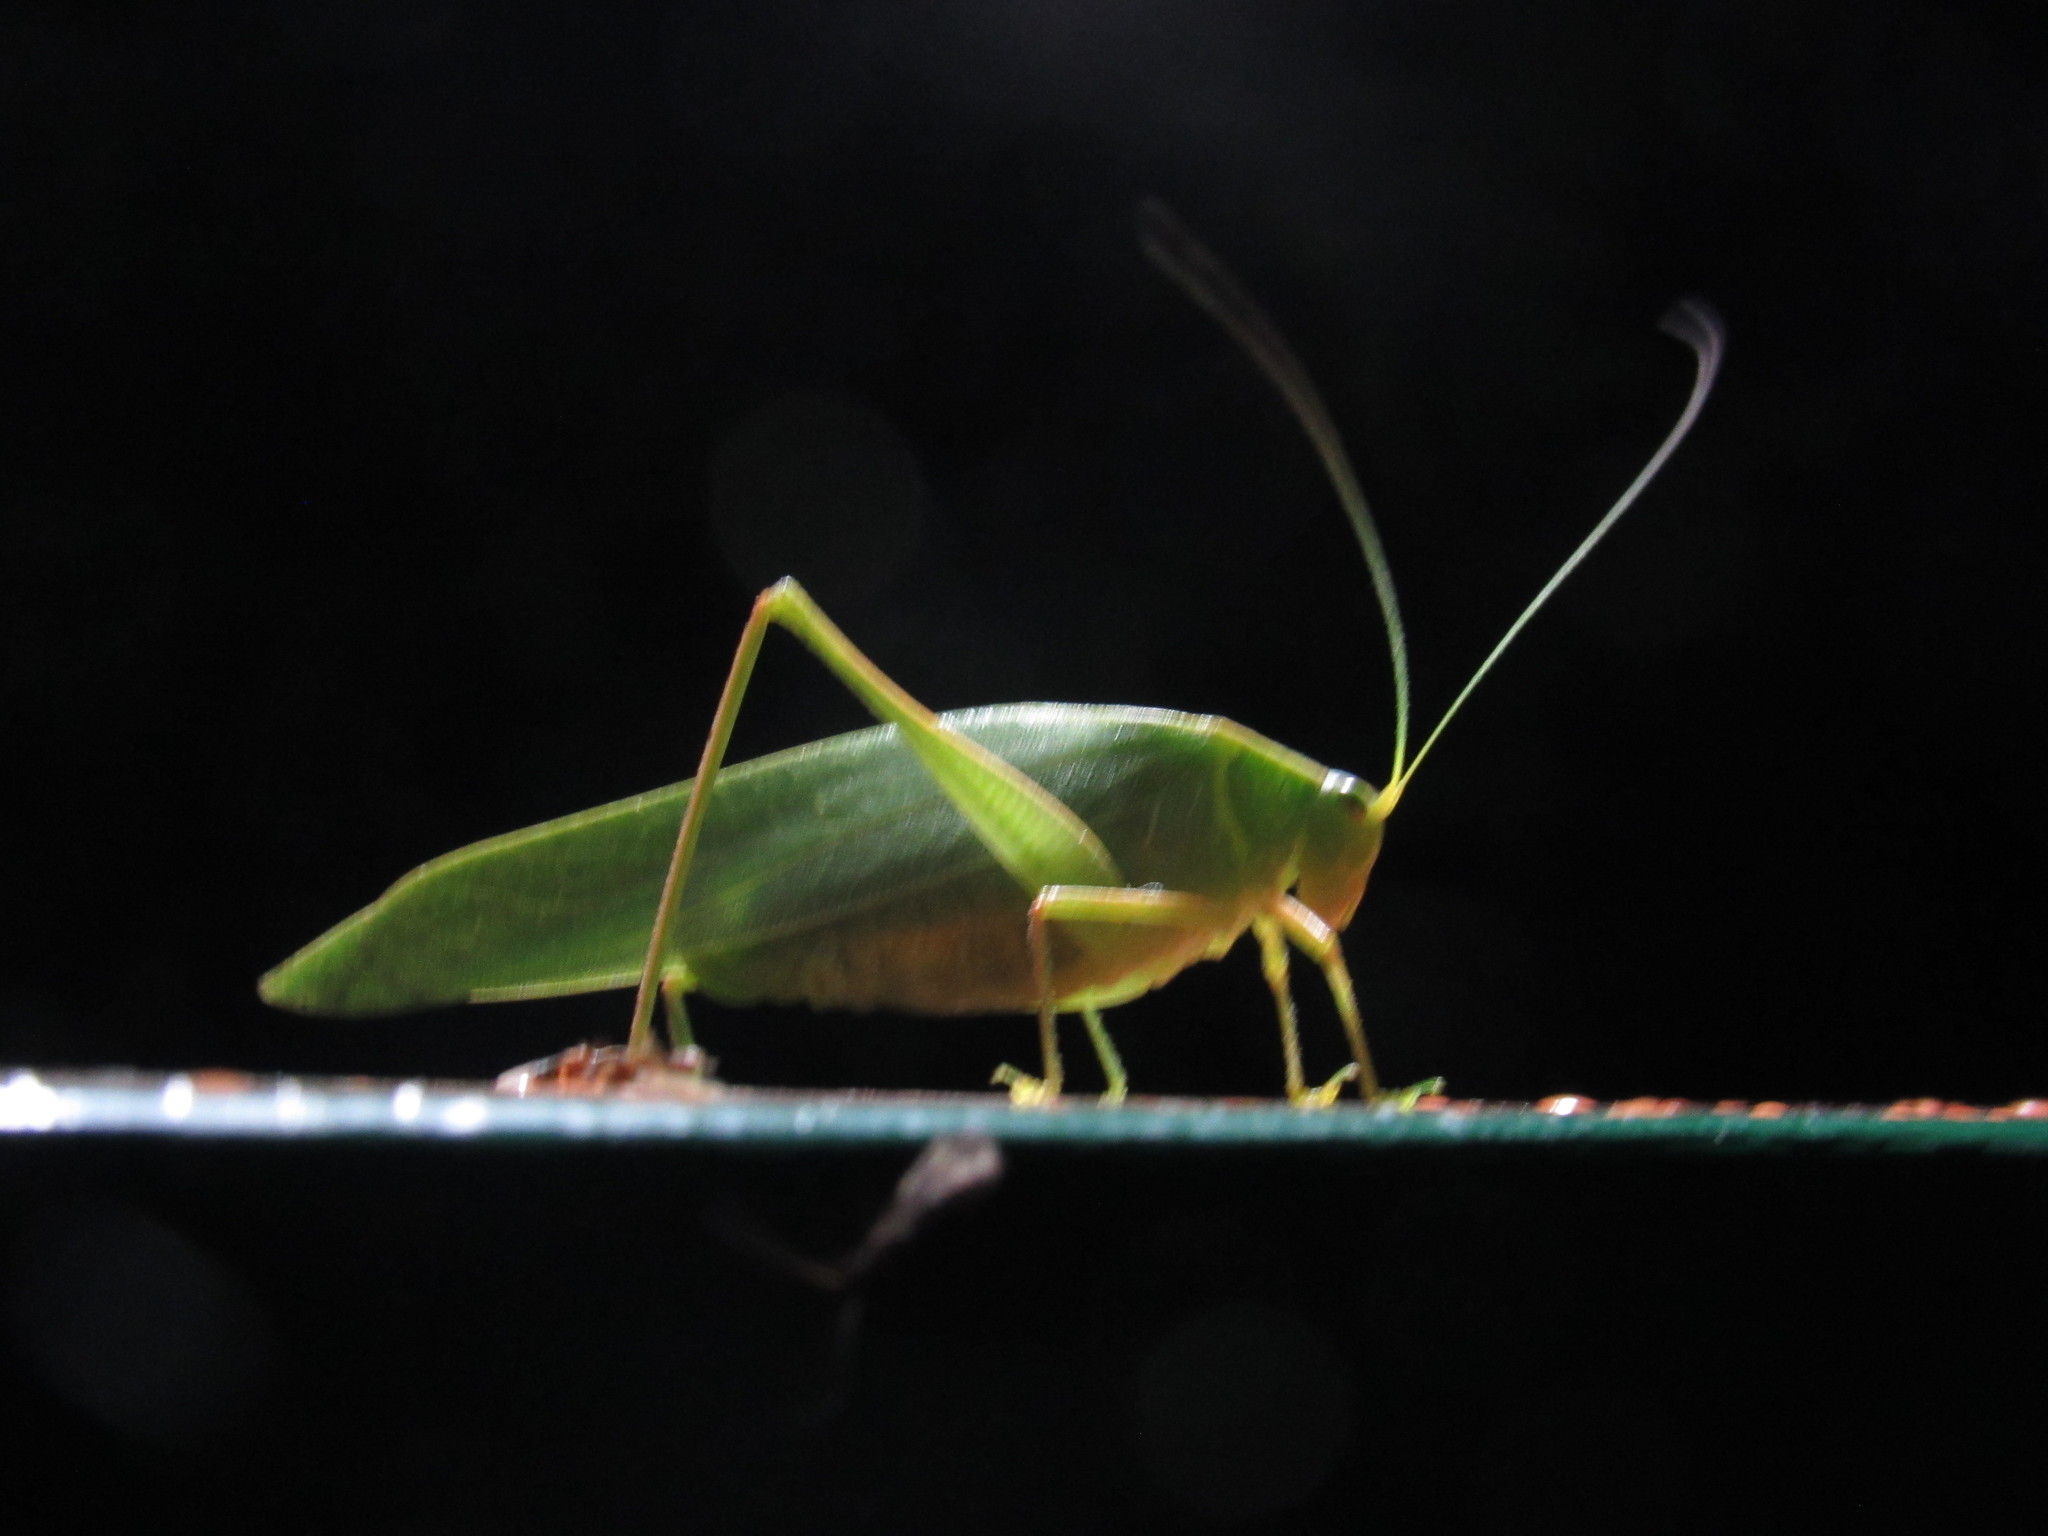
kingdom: Animalia
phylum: Arthropoda
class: Insecta
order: Orthoptera
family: Tettigoniidae
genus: Turpiliodes
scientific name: Turpiliodes mexicanum
